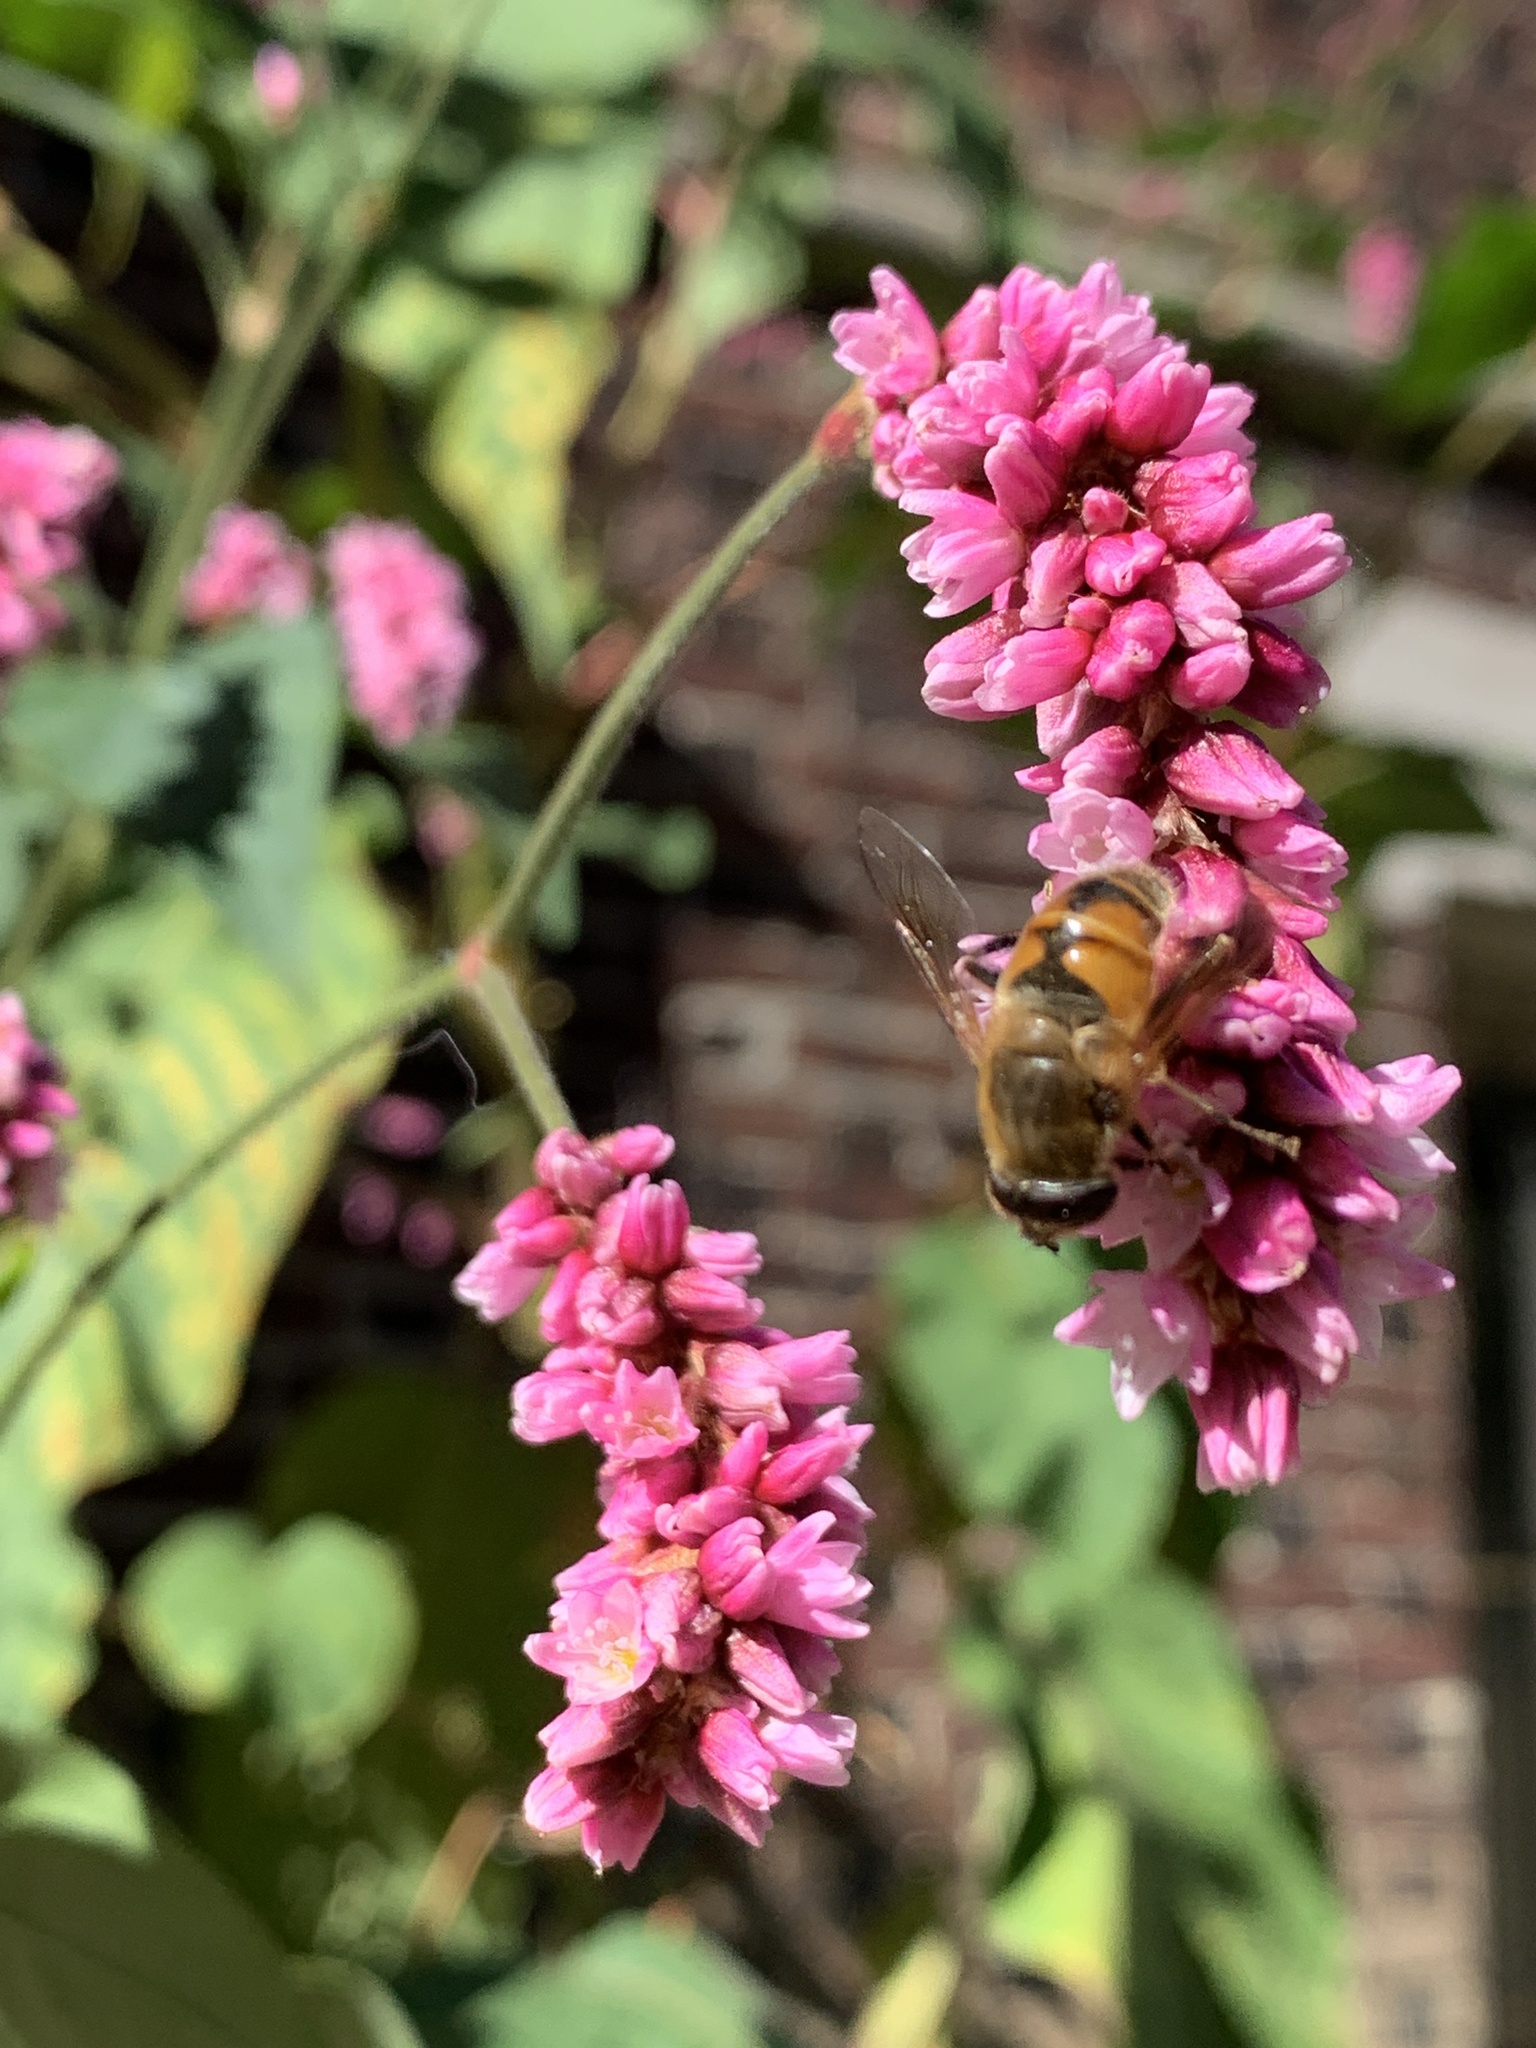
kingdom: Animalia
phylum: Arthropoda
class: Insecta
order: Diptera
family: Syrphidae
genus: Eristalis
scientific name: Eristalis tenax
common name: Drone fly
